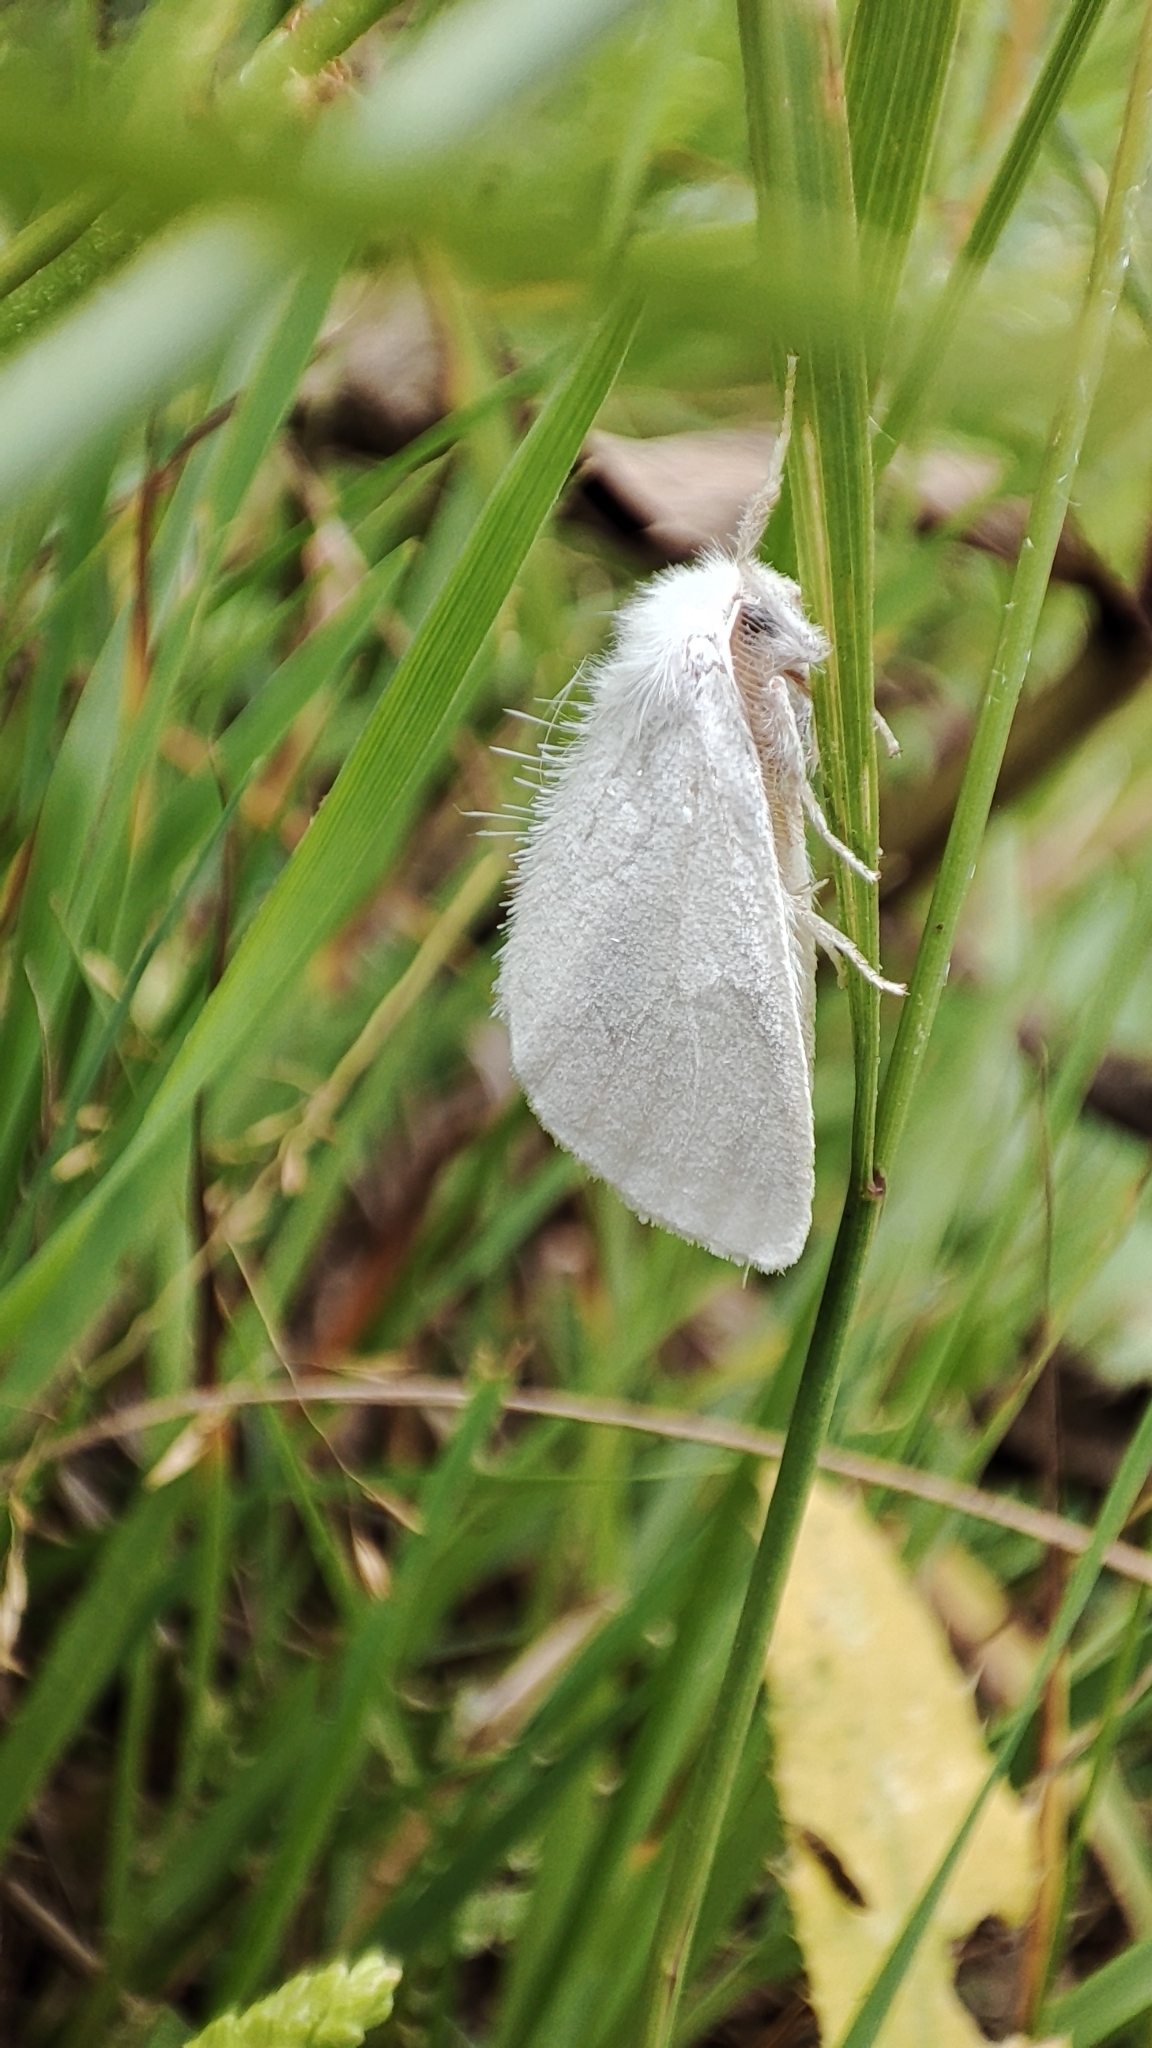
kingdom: Animalia
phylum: Arthropoda
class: Insecta
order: Lepidoptera
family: Erebidae
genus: Sphrageidus
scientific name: Sphrageidus similis
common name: Yellow-tail
